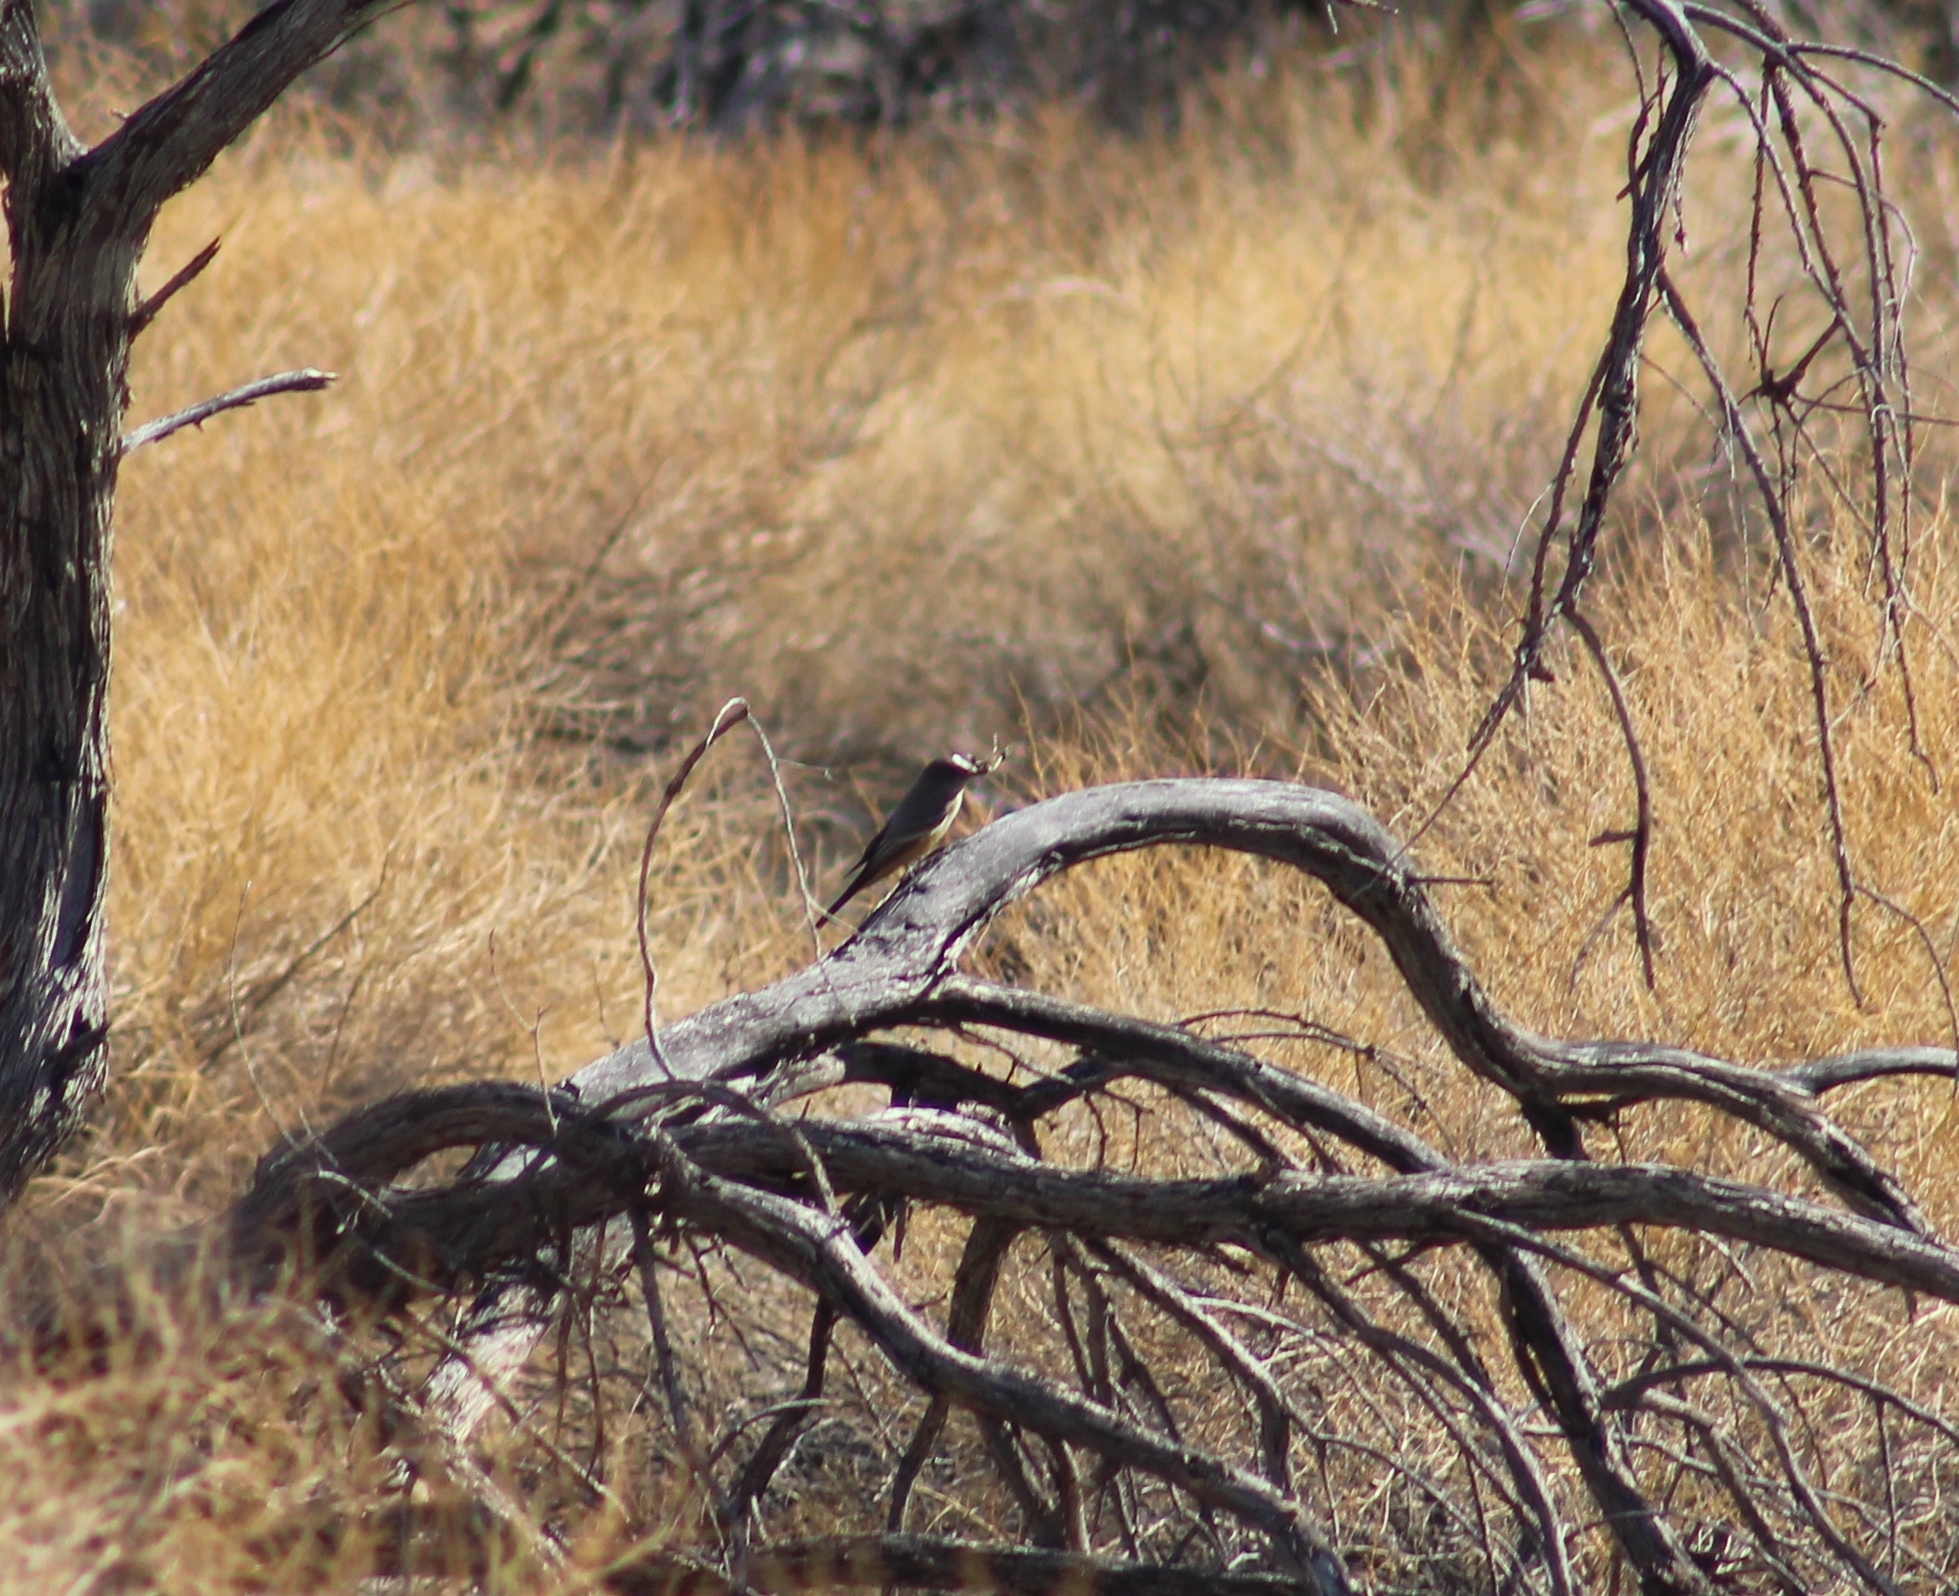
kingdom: Animalia
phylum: Chordata
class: Aves
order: Passeriformes
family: Tyrannidae
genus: Sayornis
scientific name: Sayornis saya
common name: Say's phoebe
